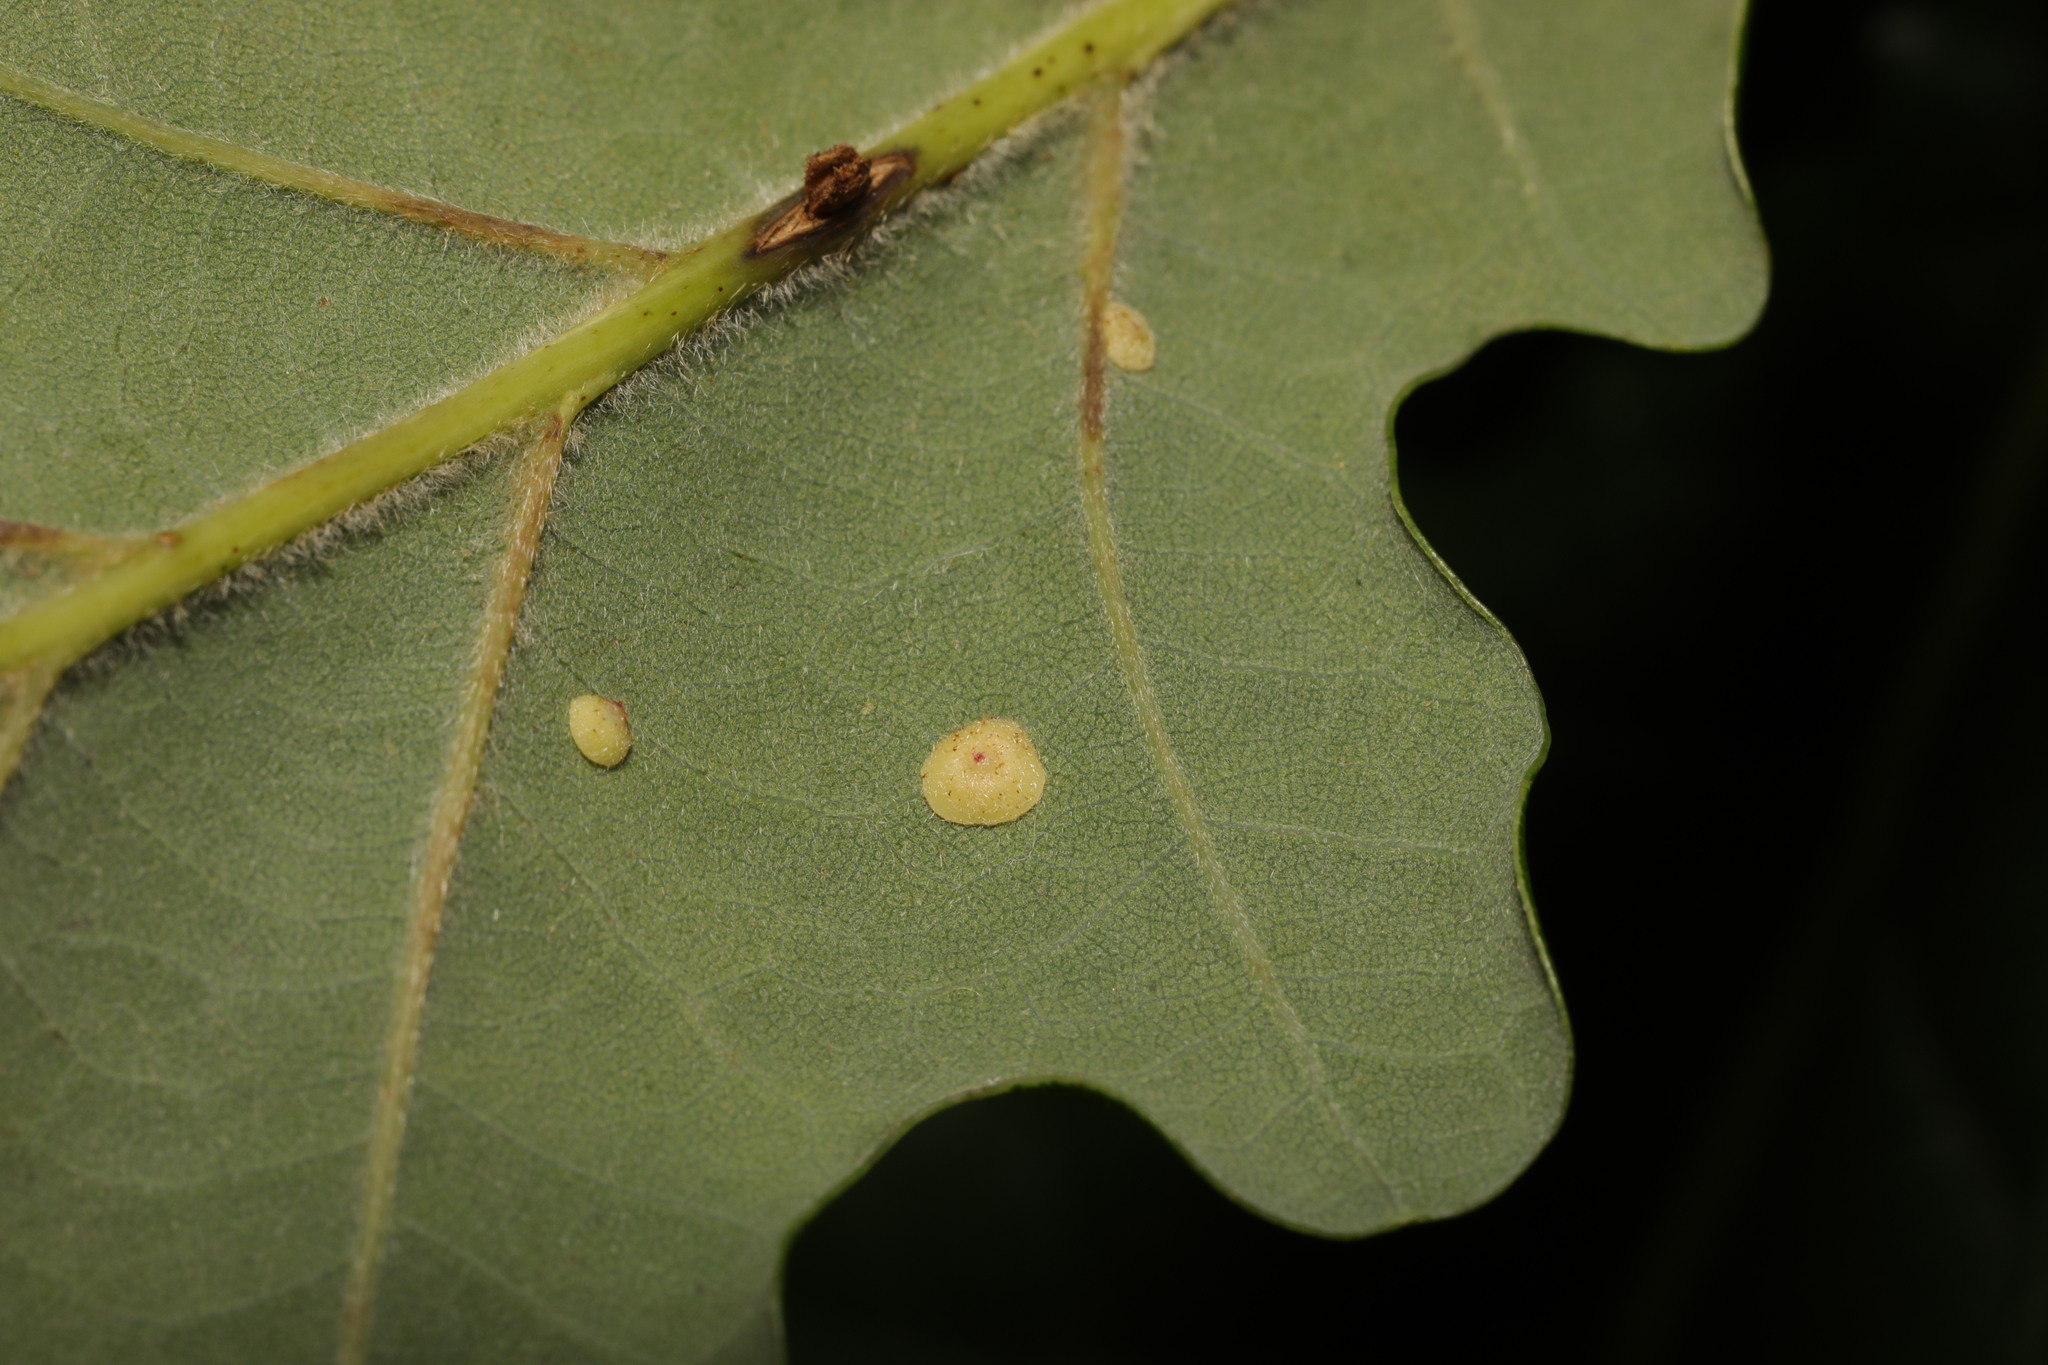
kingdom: Animalia
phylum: Arthropoda
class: Insecta
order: Hymenoptera
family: Cynipidae
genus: Neuroterus
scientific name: Neuroterus albipes
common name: Smooth spangle gall
